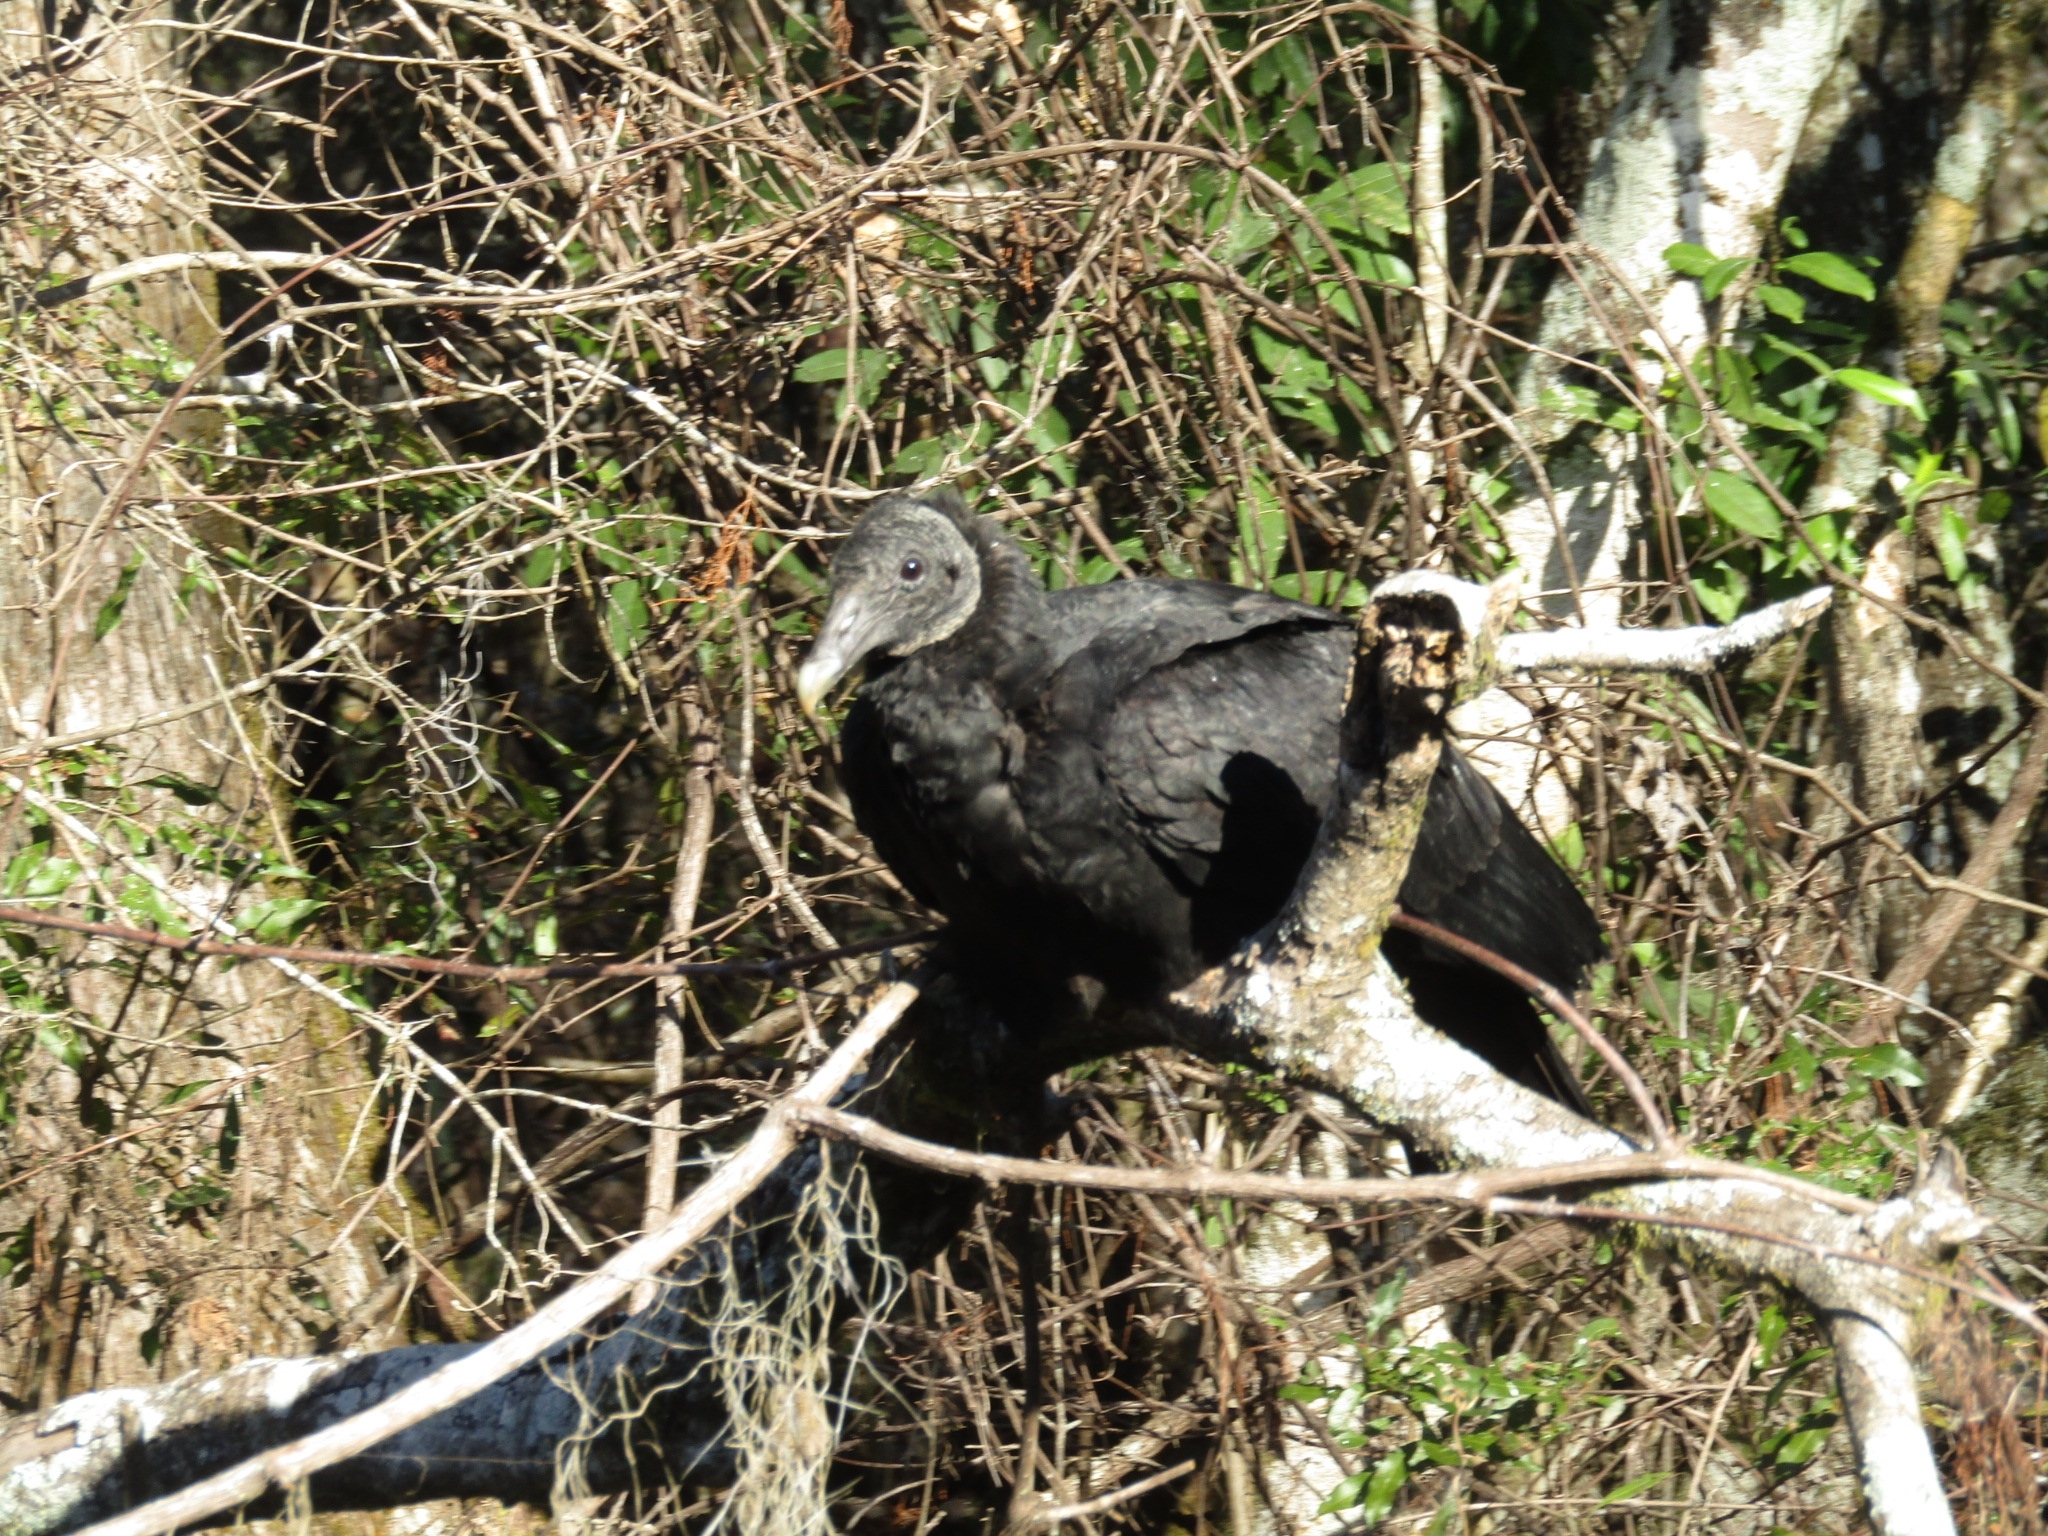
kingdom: Animalia
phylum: Chordata
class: Aves
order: Accipitriformes
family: Cathartidae
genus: Coragyps
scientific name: Coragyps atratus
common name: Black vulture
